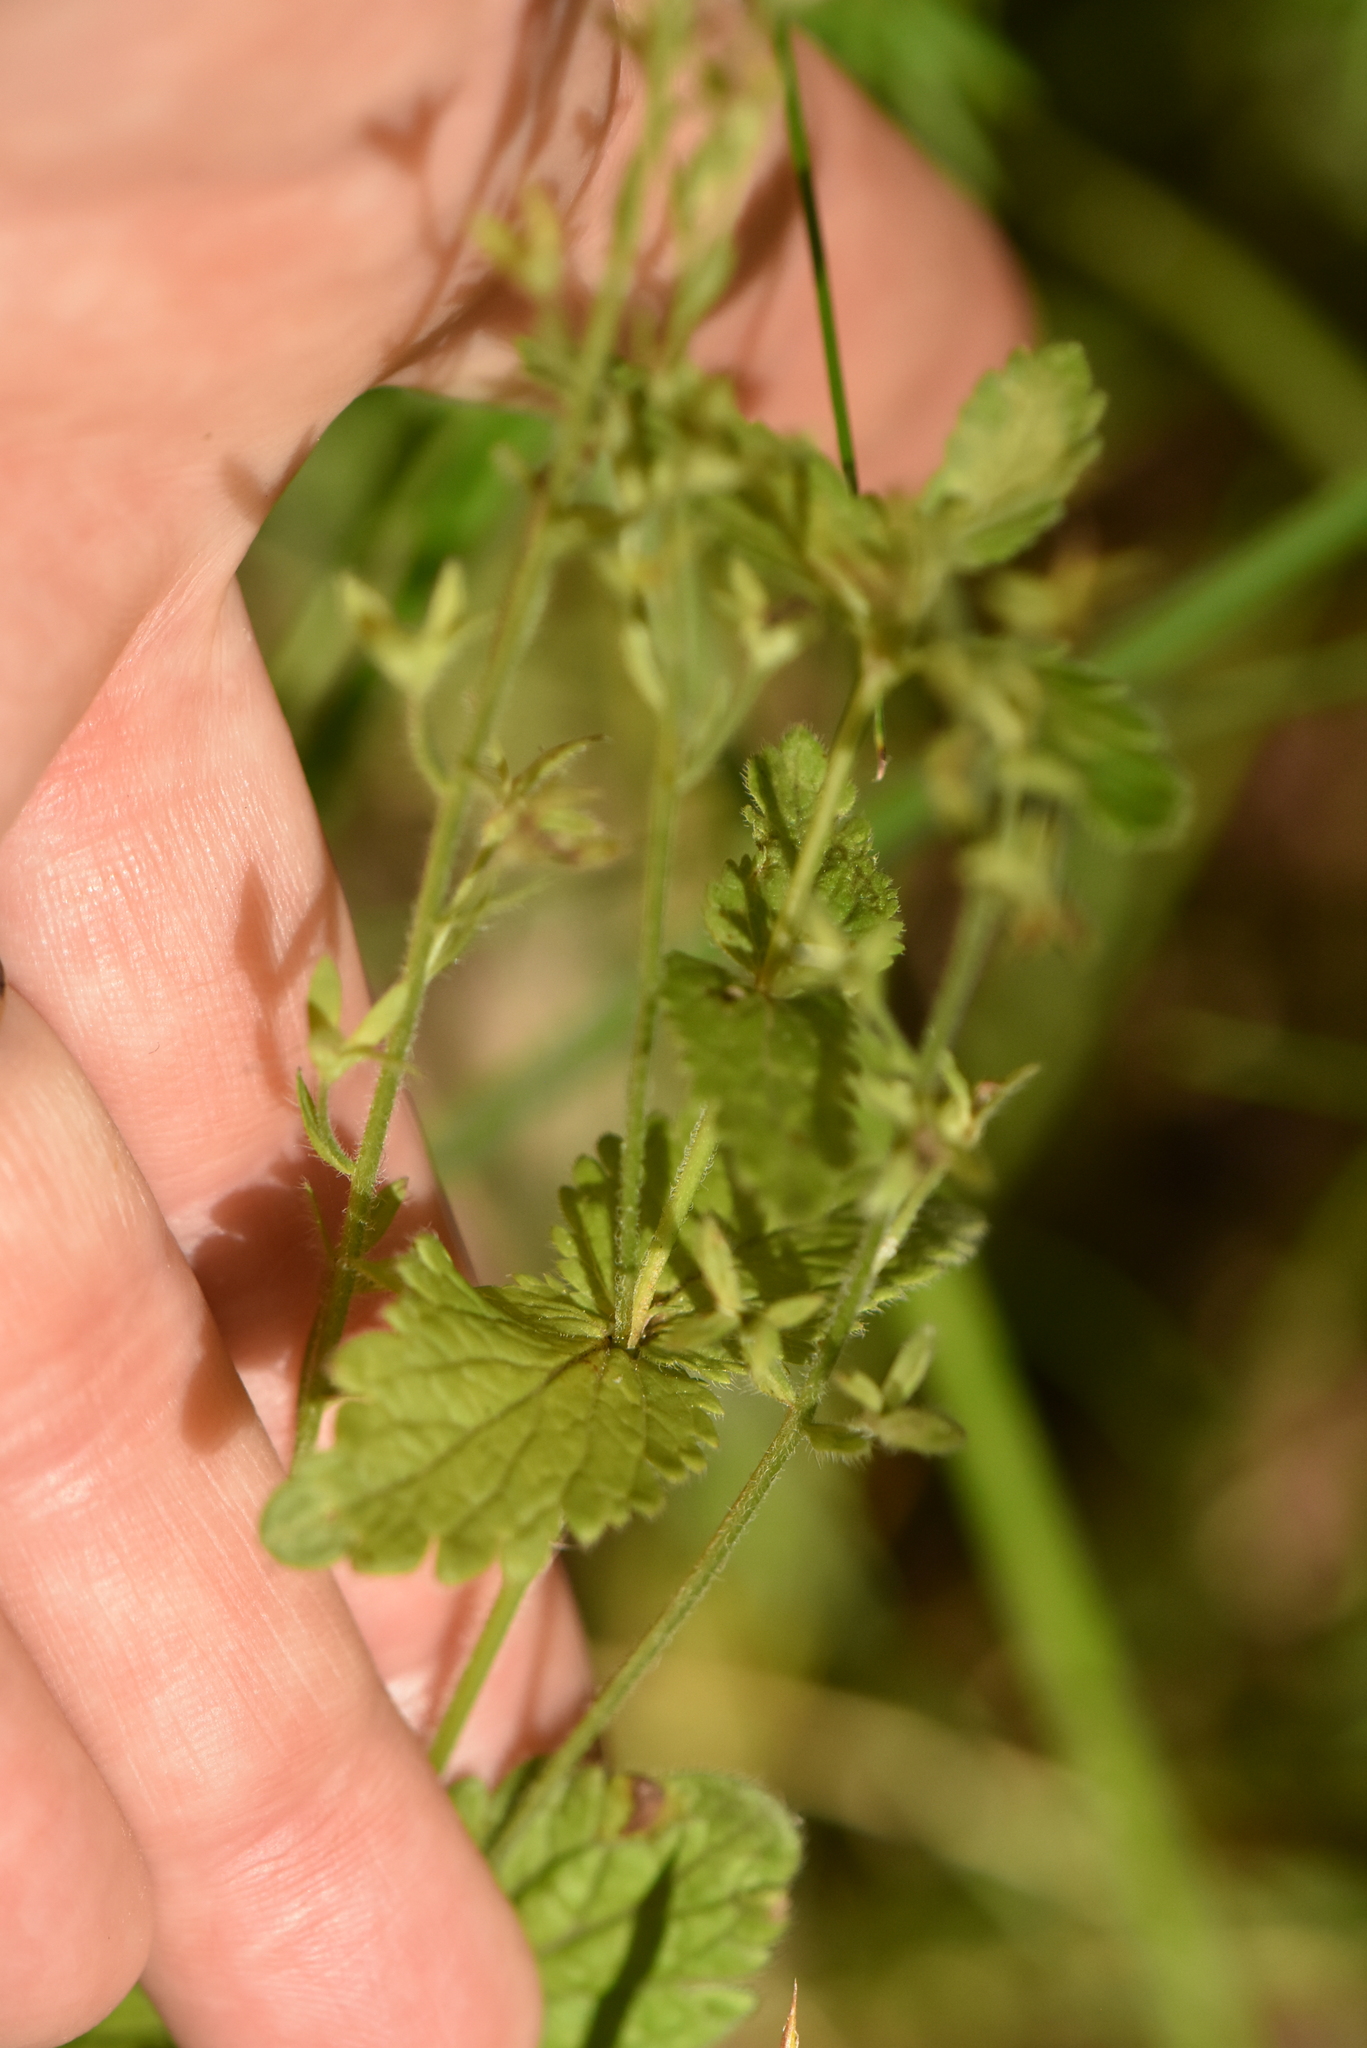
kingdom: Plantae
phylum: Tracheophyta
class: Magnoliopsida
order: Lamiales
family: Plantaginaceae
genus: Veronica
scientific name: Veronica chamaedrys
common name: Germander speedwell
